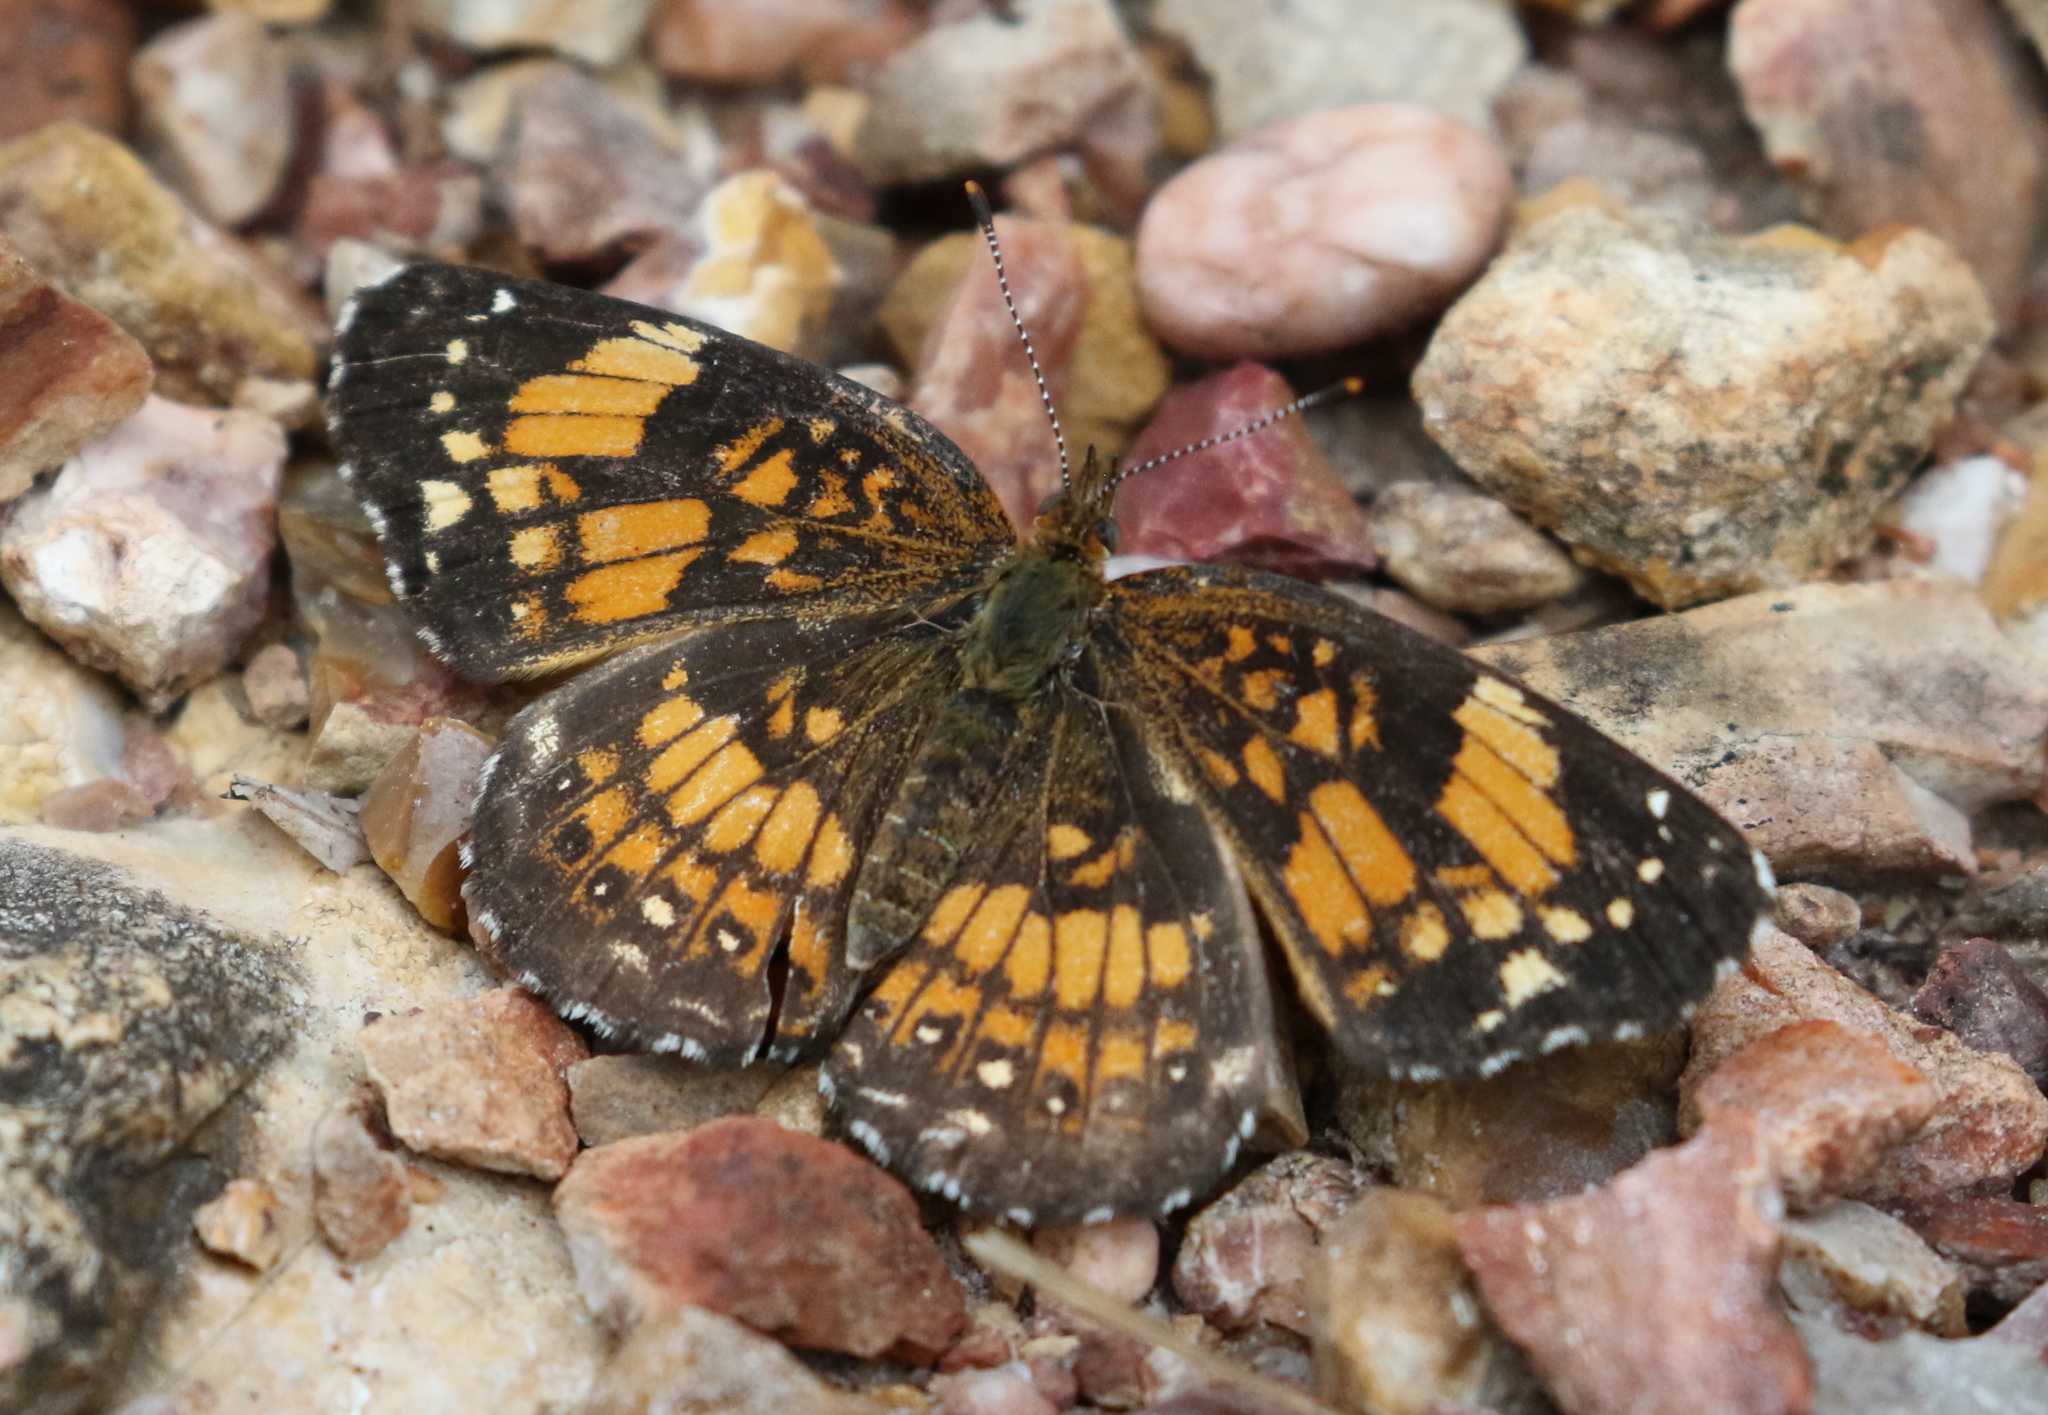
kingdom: Animalia
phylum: Arthropoda
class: Insecta
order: Lepidoptera
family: Nymphalidae
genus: Chlosyne
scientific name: Chlosyne nycteis
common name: Silvery checkerspot
